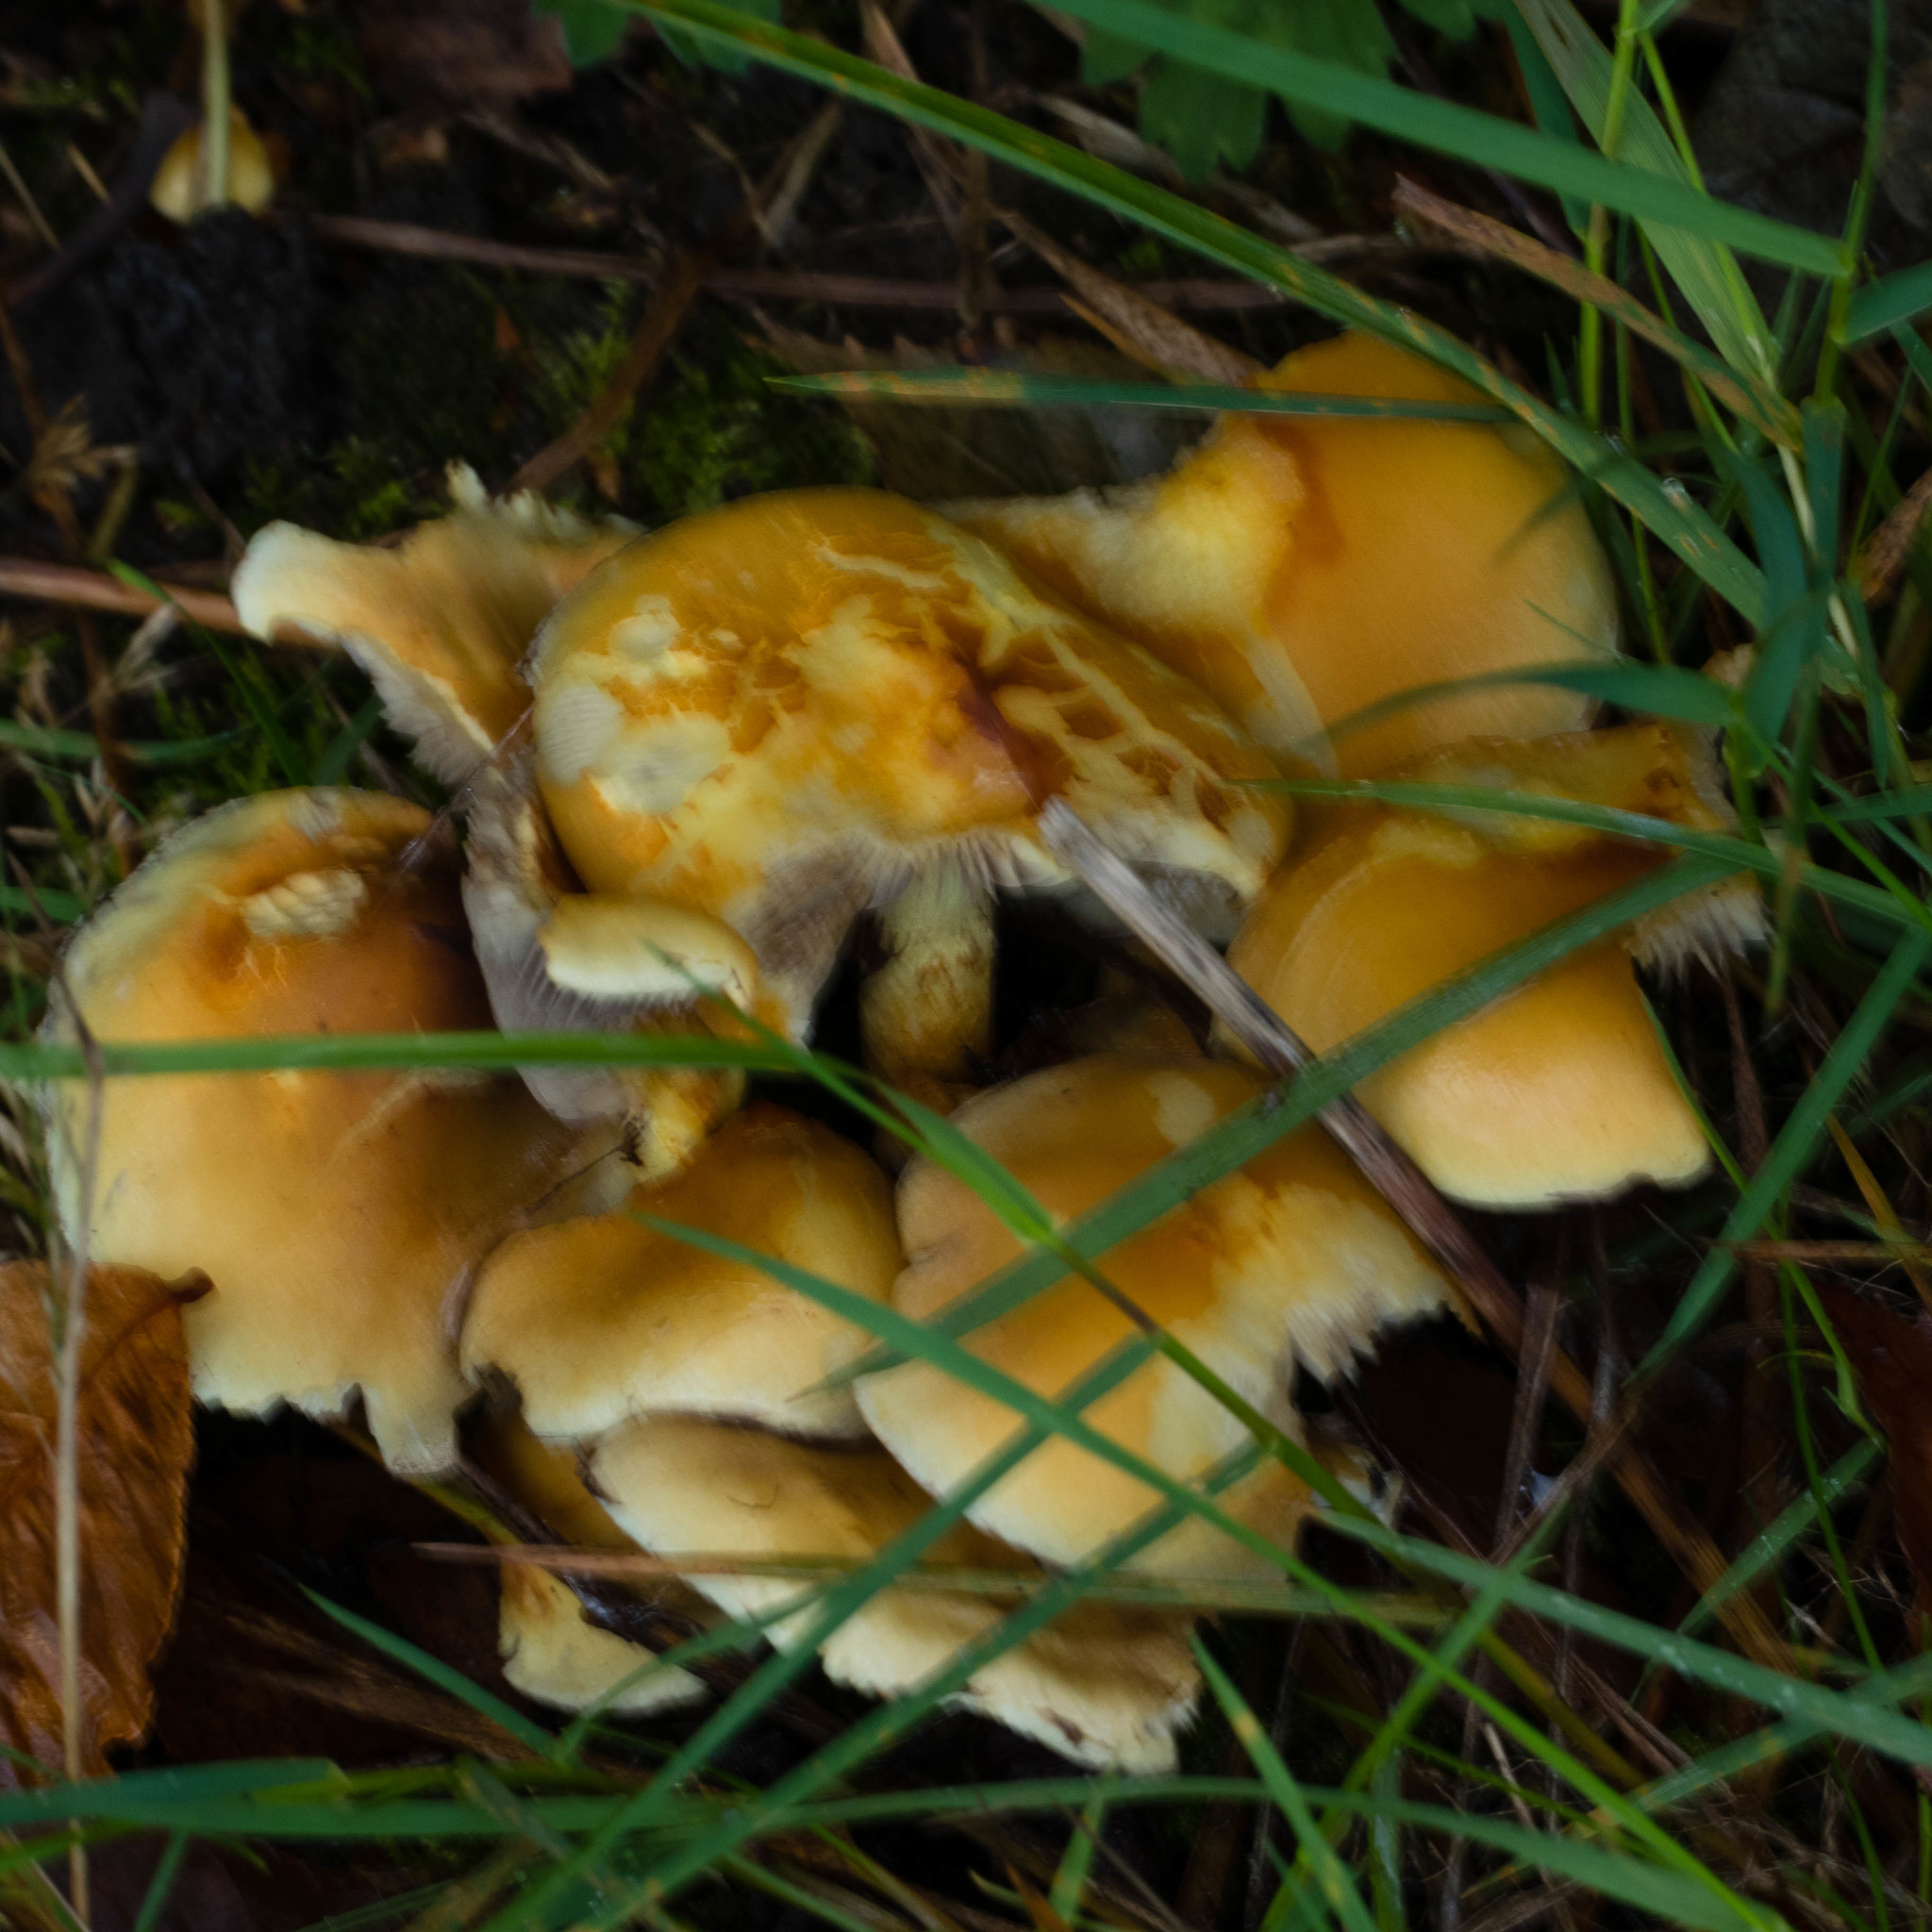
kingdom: Fungi
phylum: Basidiomycota
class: Agaricomycetes
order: Agaricales
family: Strophariaceae
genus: Hypholoma
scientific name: Hypholoma fasciculare
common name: Sulphur tuft
